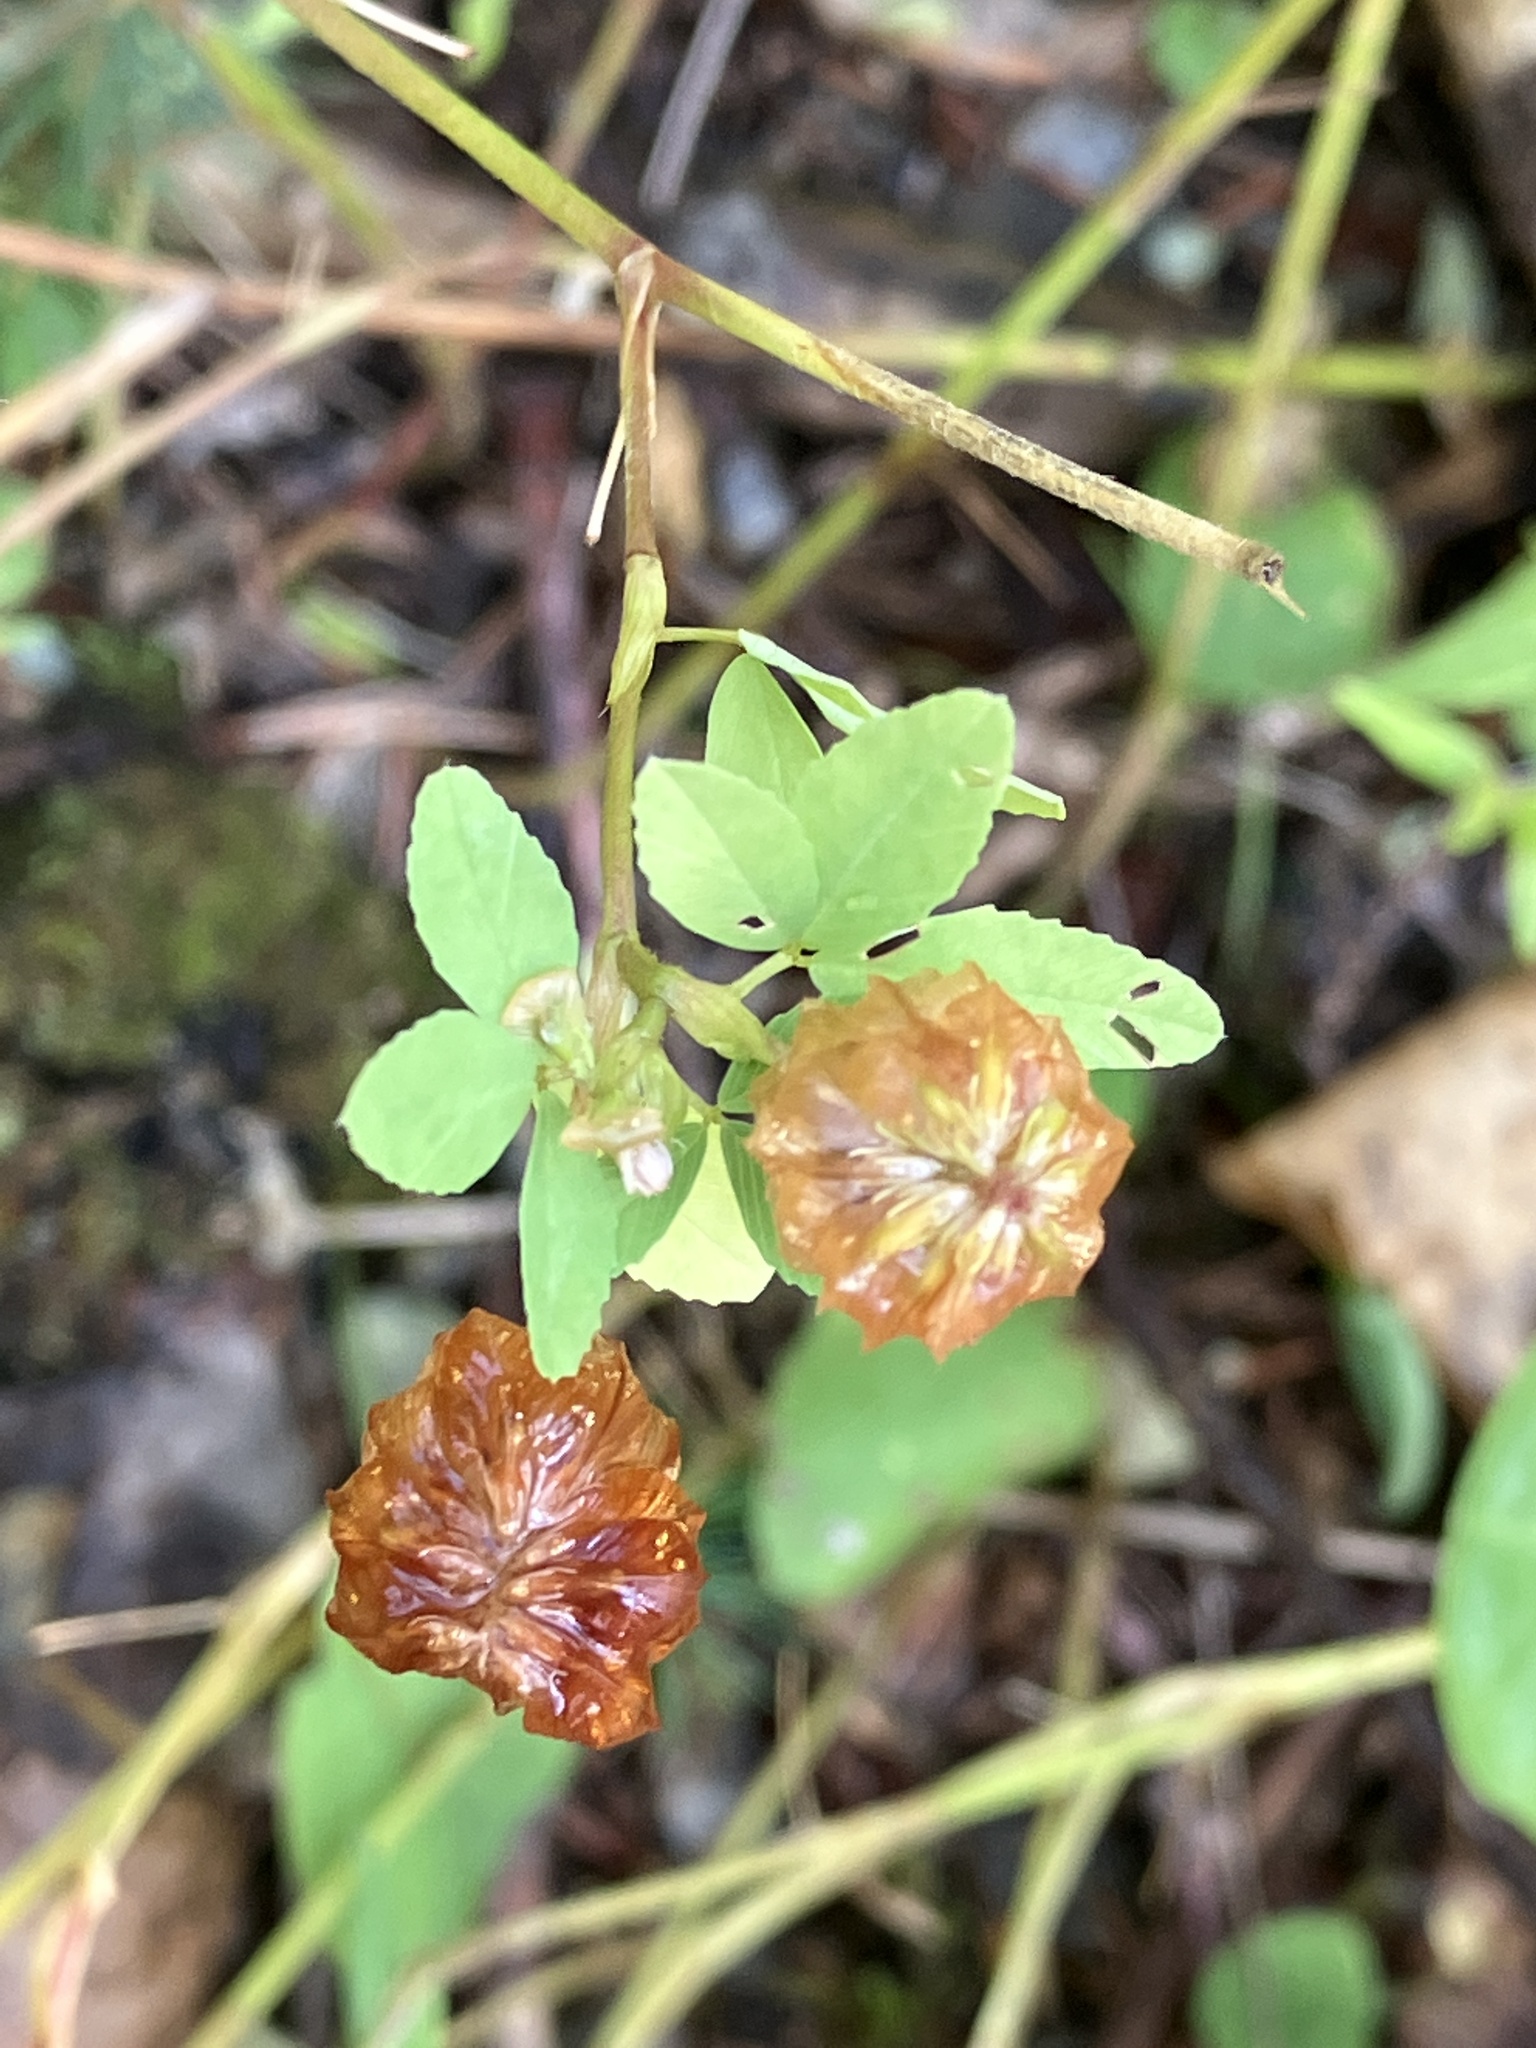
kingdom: Plantae
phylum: Tracheophyta
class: Magnoliopsida
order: Fabales
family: Fabaceae
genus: Trifolium
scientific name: Trifolium aureum
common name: Golden clover
